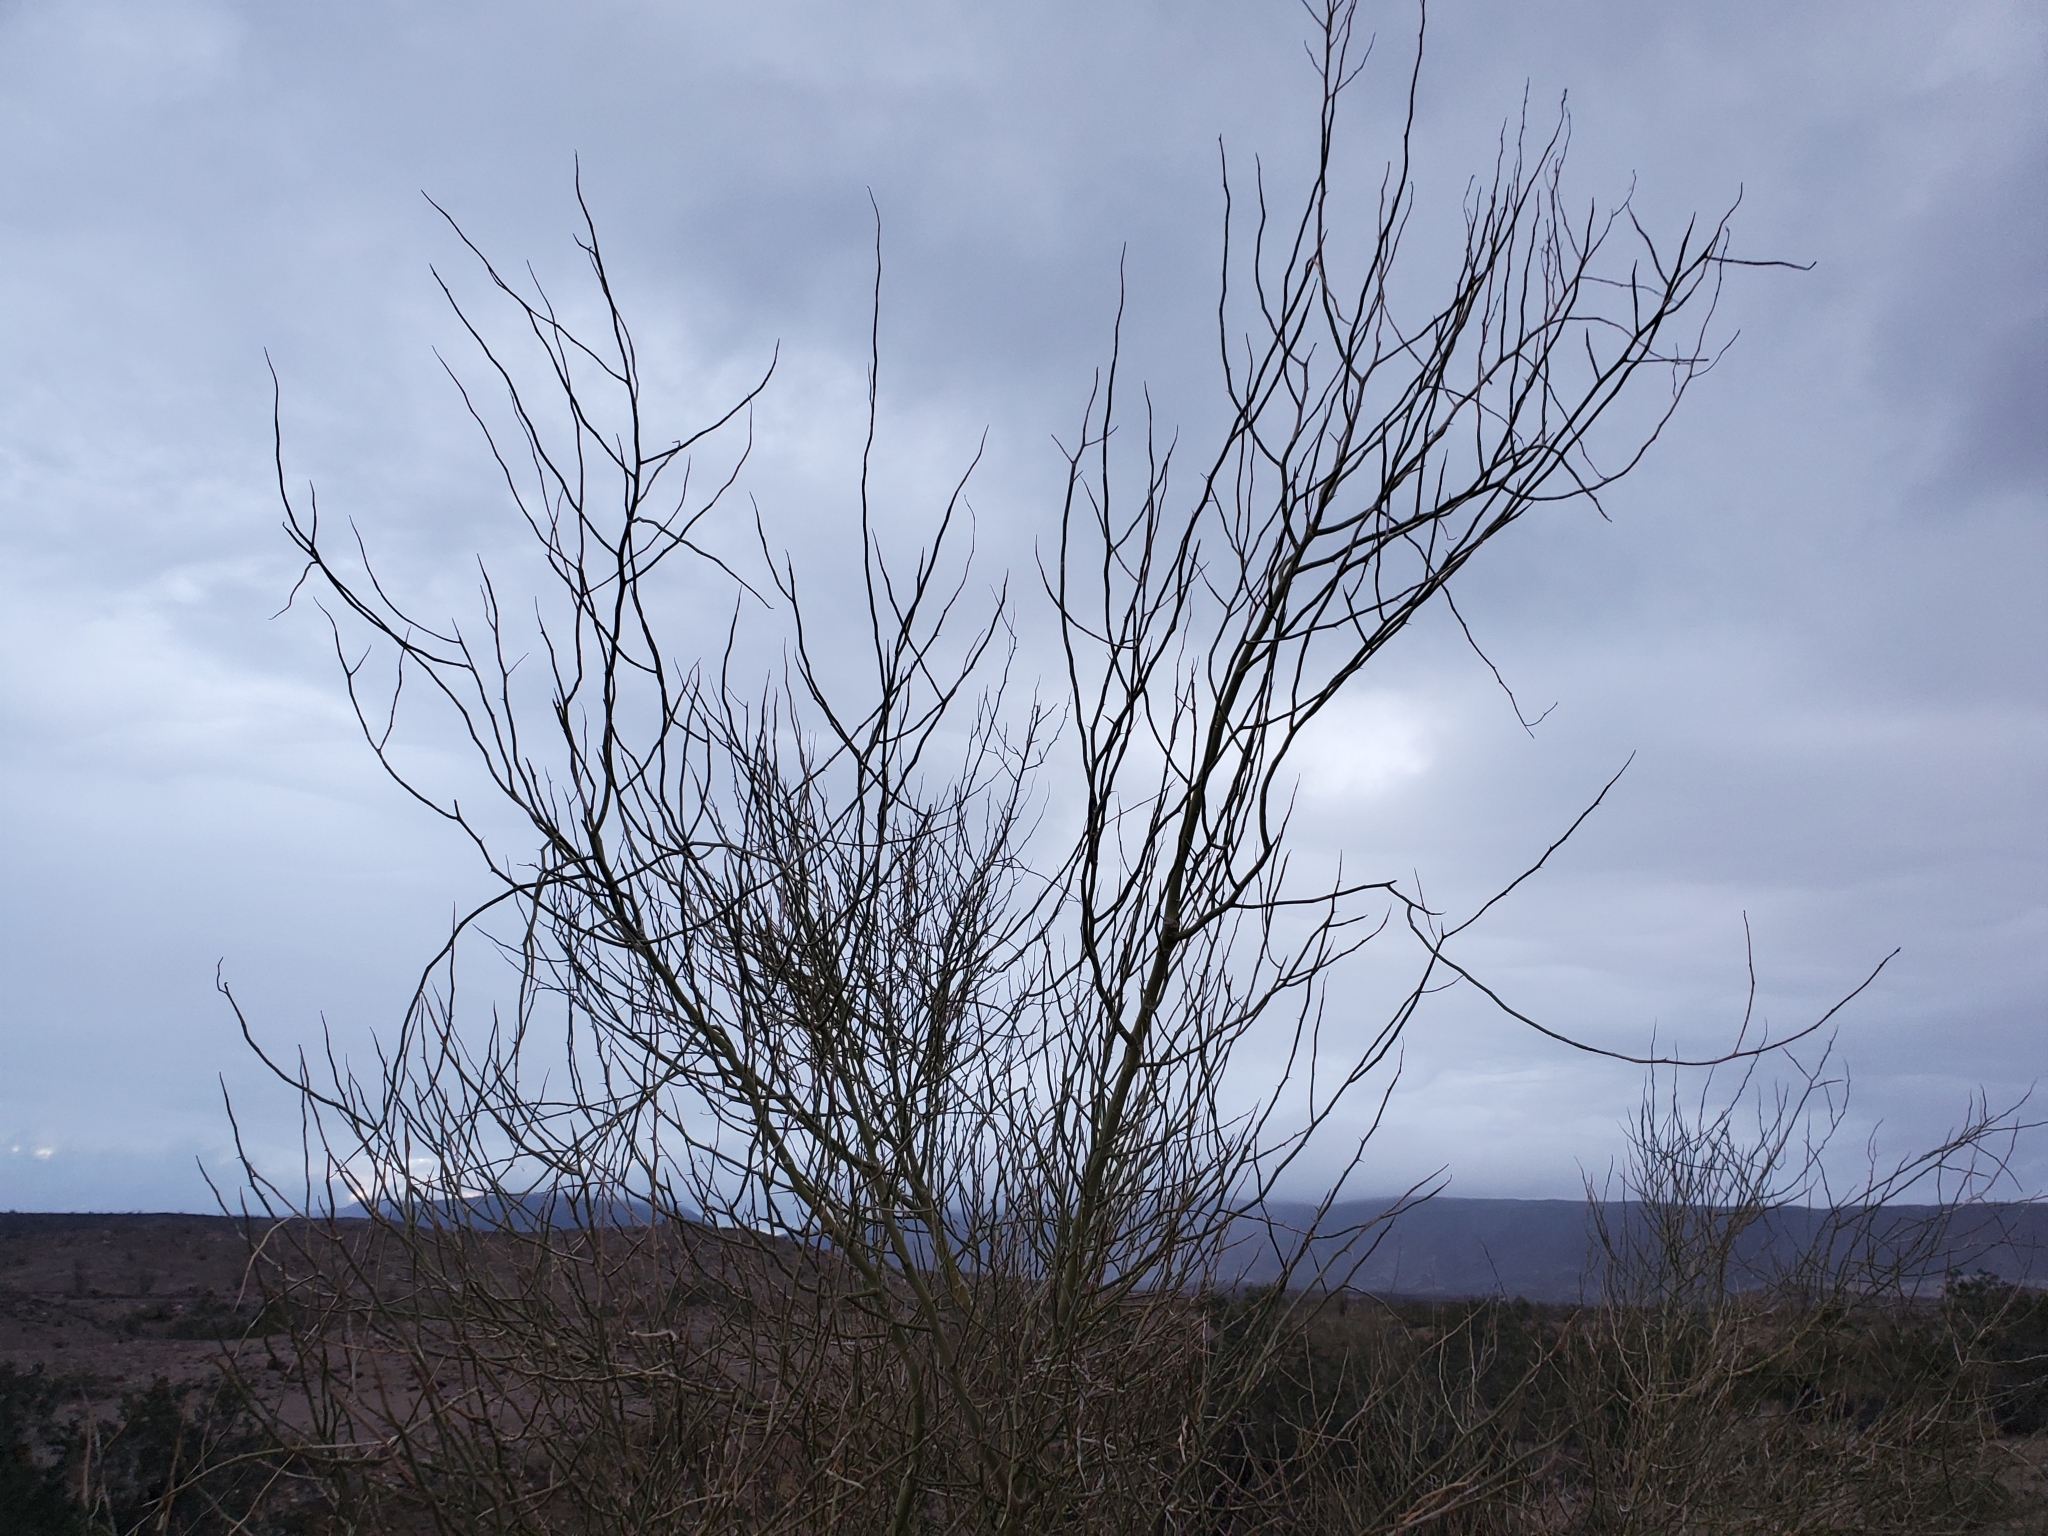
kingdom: Plantae
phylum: Tracheophyta
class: Magnoliopsida
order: Fabales
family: Fabaceae
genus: Parkinsonia
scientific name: Parkinsonia florida
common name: Blue paloverde
